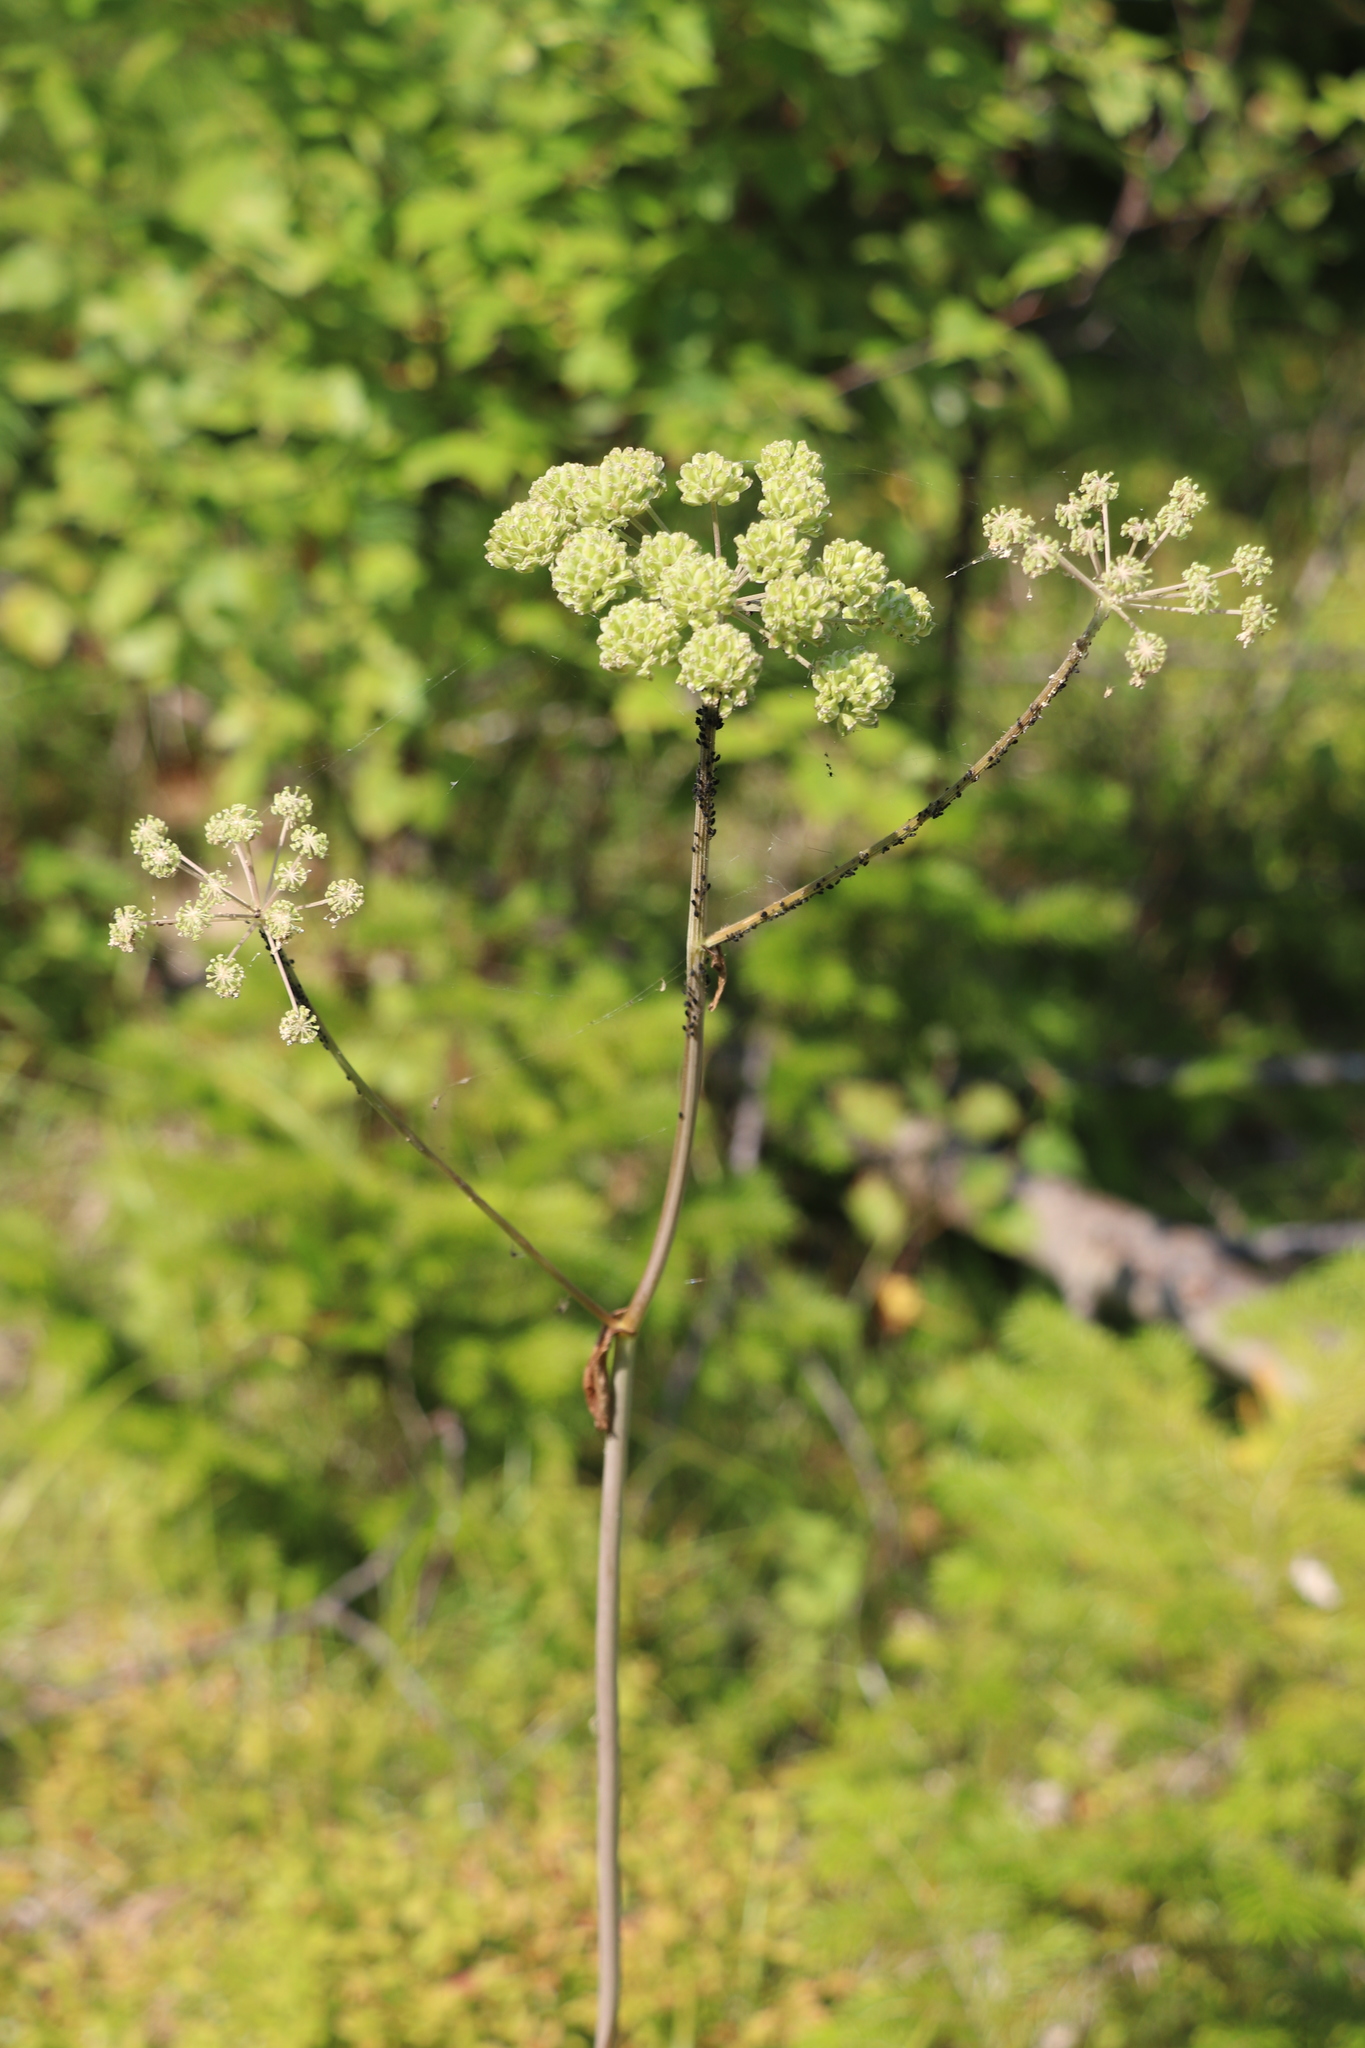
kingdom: Plantae
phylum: Tracheophyta
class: Magnoliopsida
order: Apiales
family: Apiaceae
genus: Angelica
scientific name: Angelica sylvestris
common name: Wild angelica
